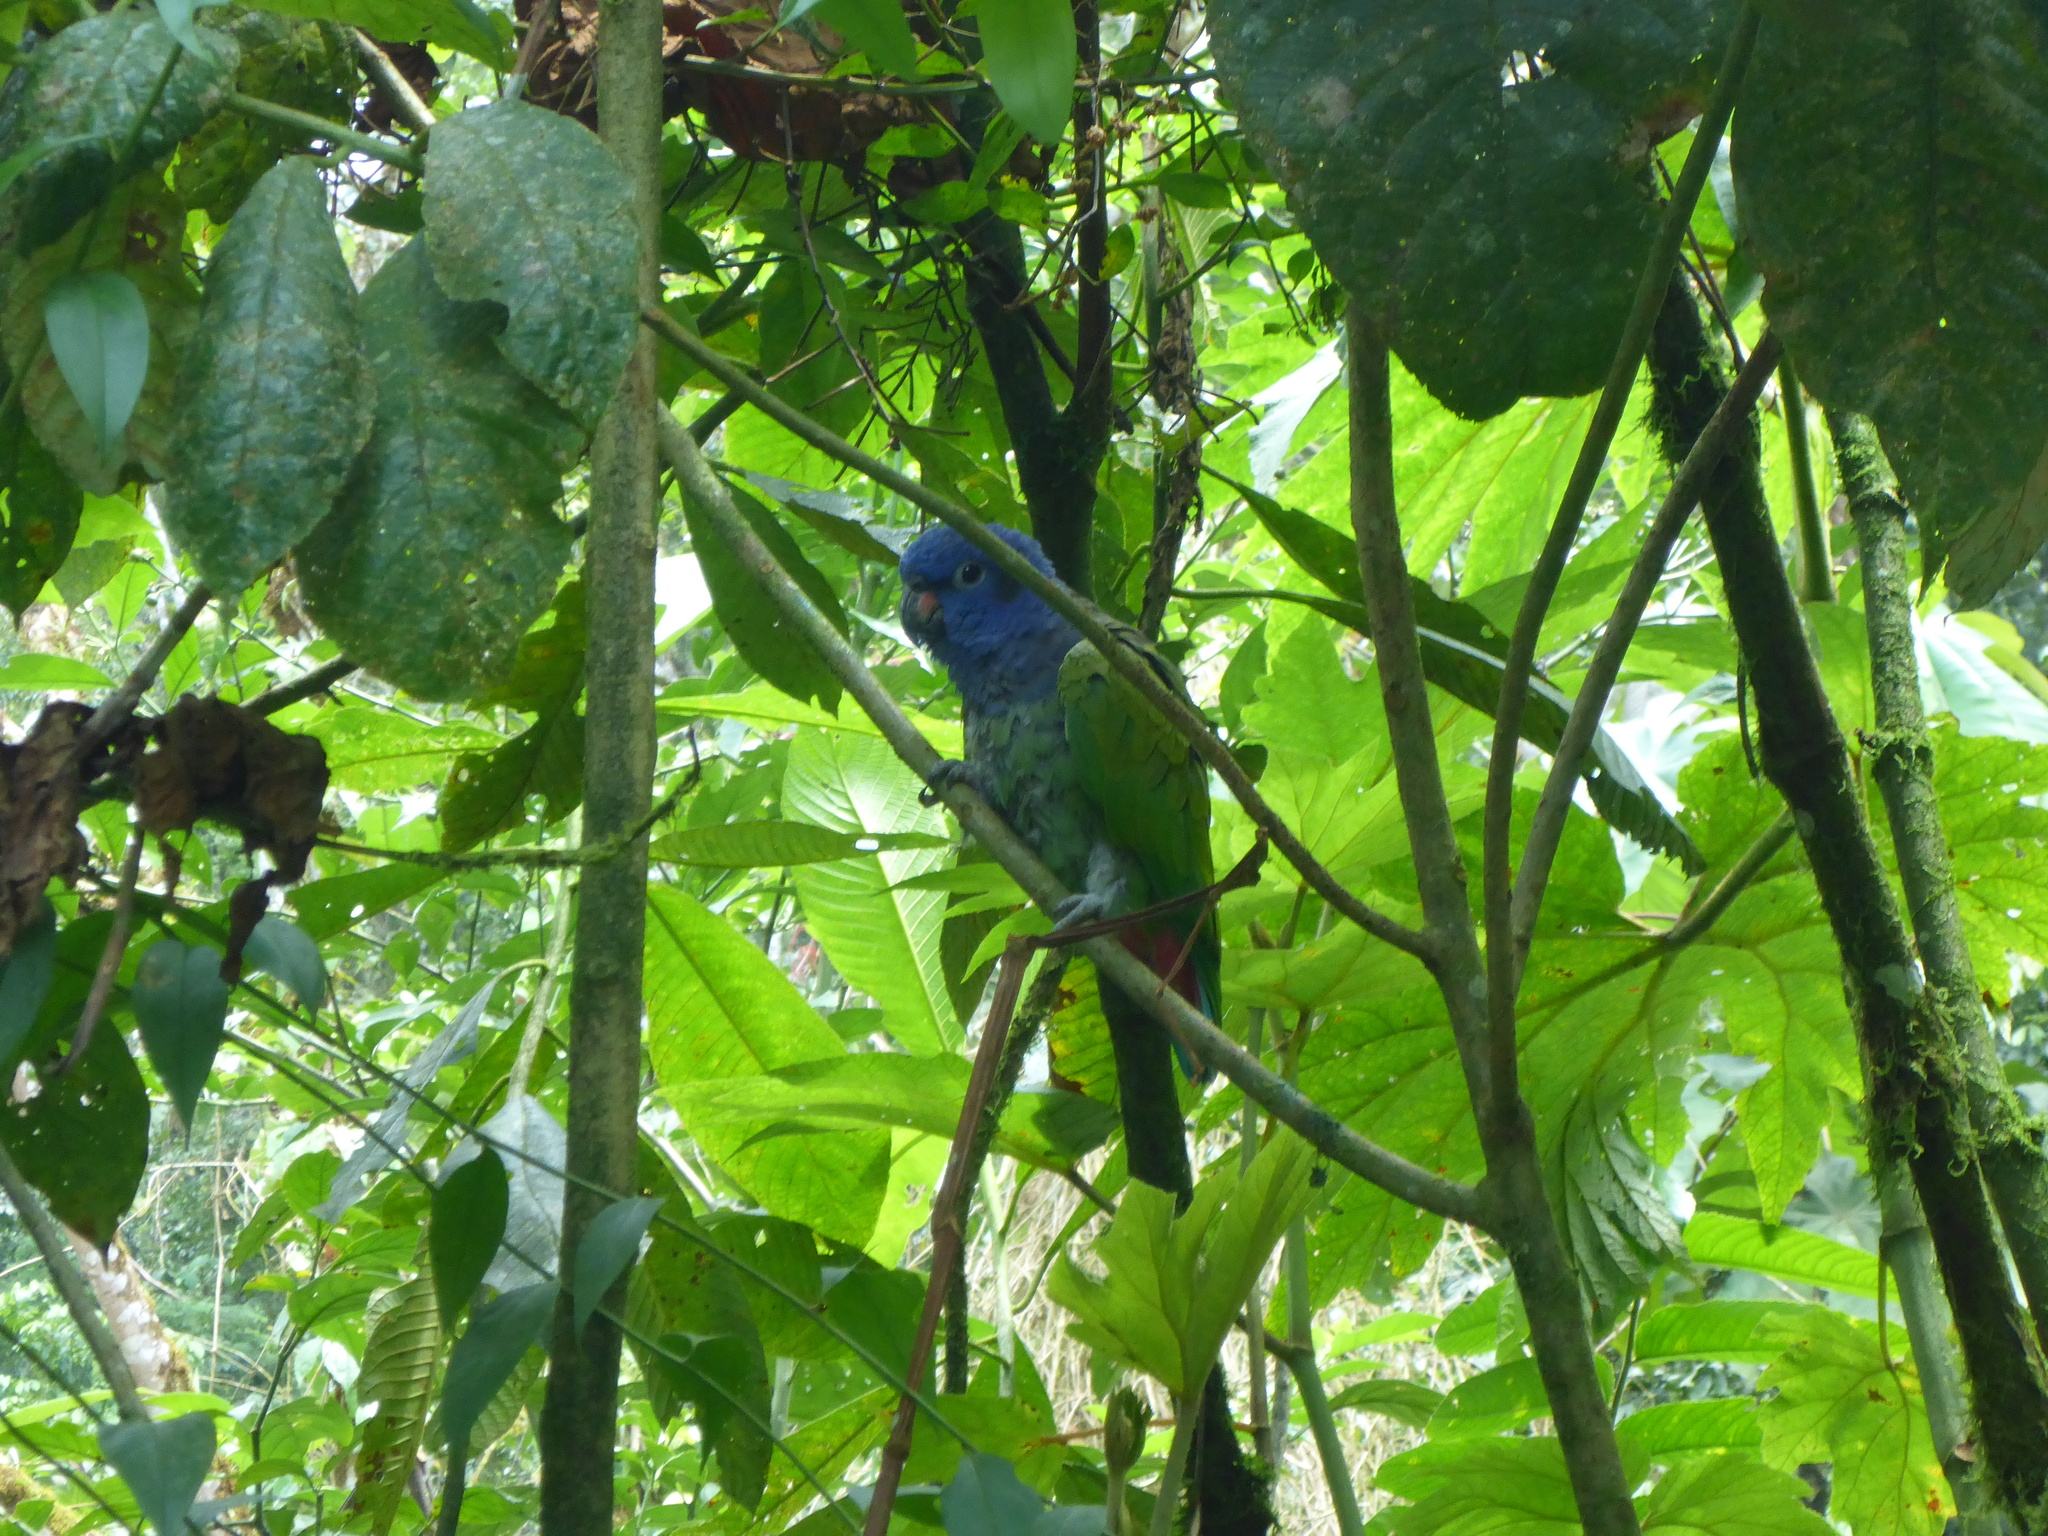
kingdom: Animalia
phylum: Chordata
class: Aves
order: Psittaciformes
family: Psittacidae
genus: Pionus
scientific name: Pionus menstruus
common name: Blue-headed parrot
